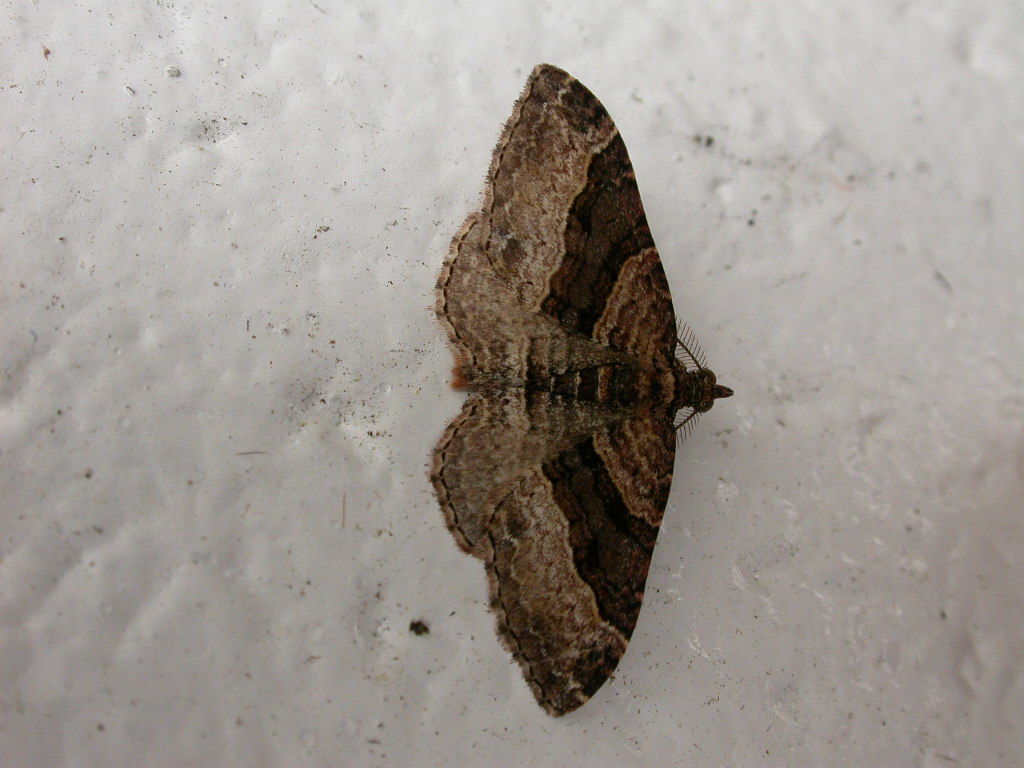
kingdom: Animalia
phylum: Arthropoda
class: Insecta
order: Lepidoptera
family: Geometridae
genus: Epyaxa
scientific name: Epyaxa lucidata
